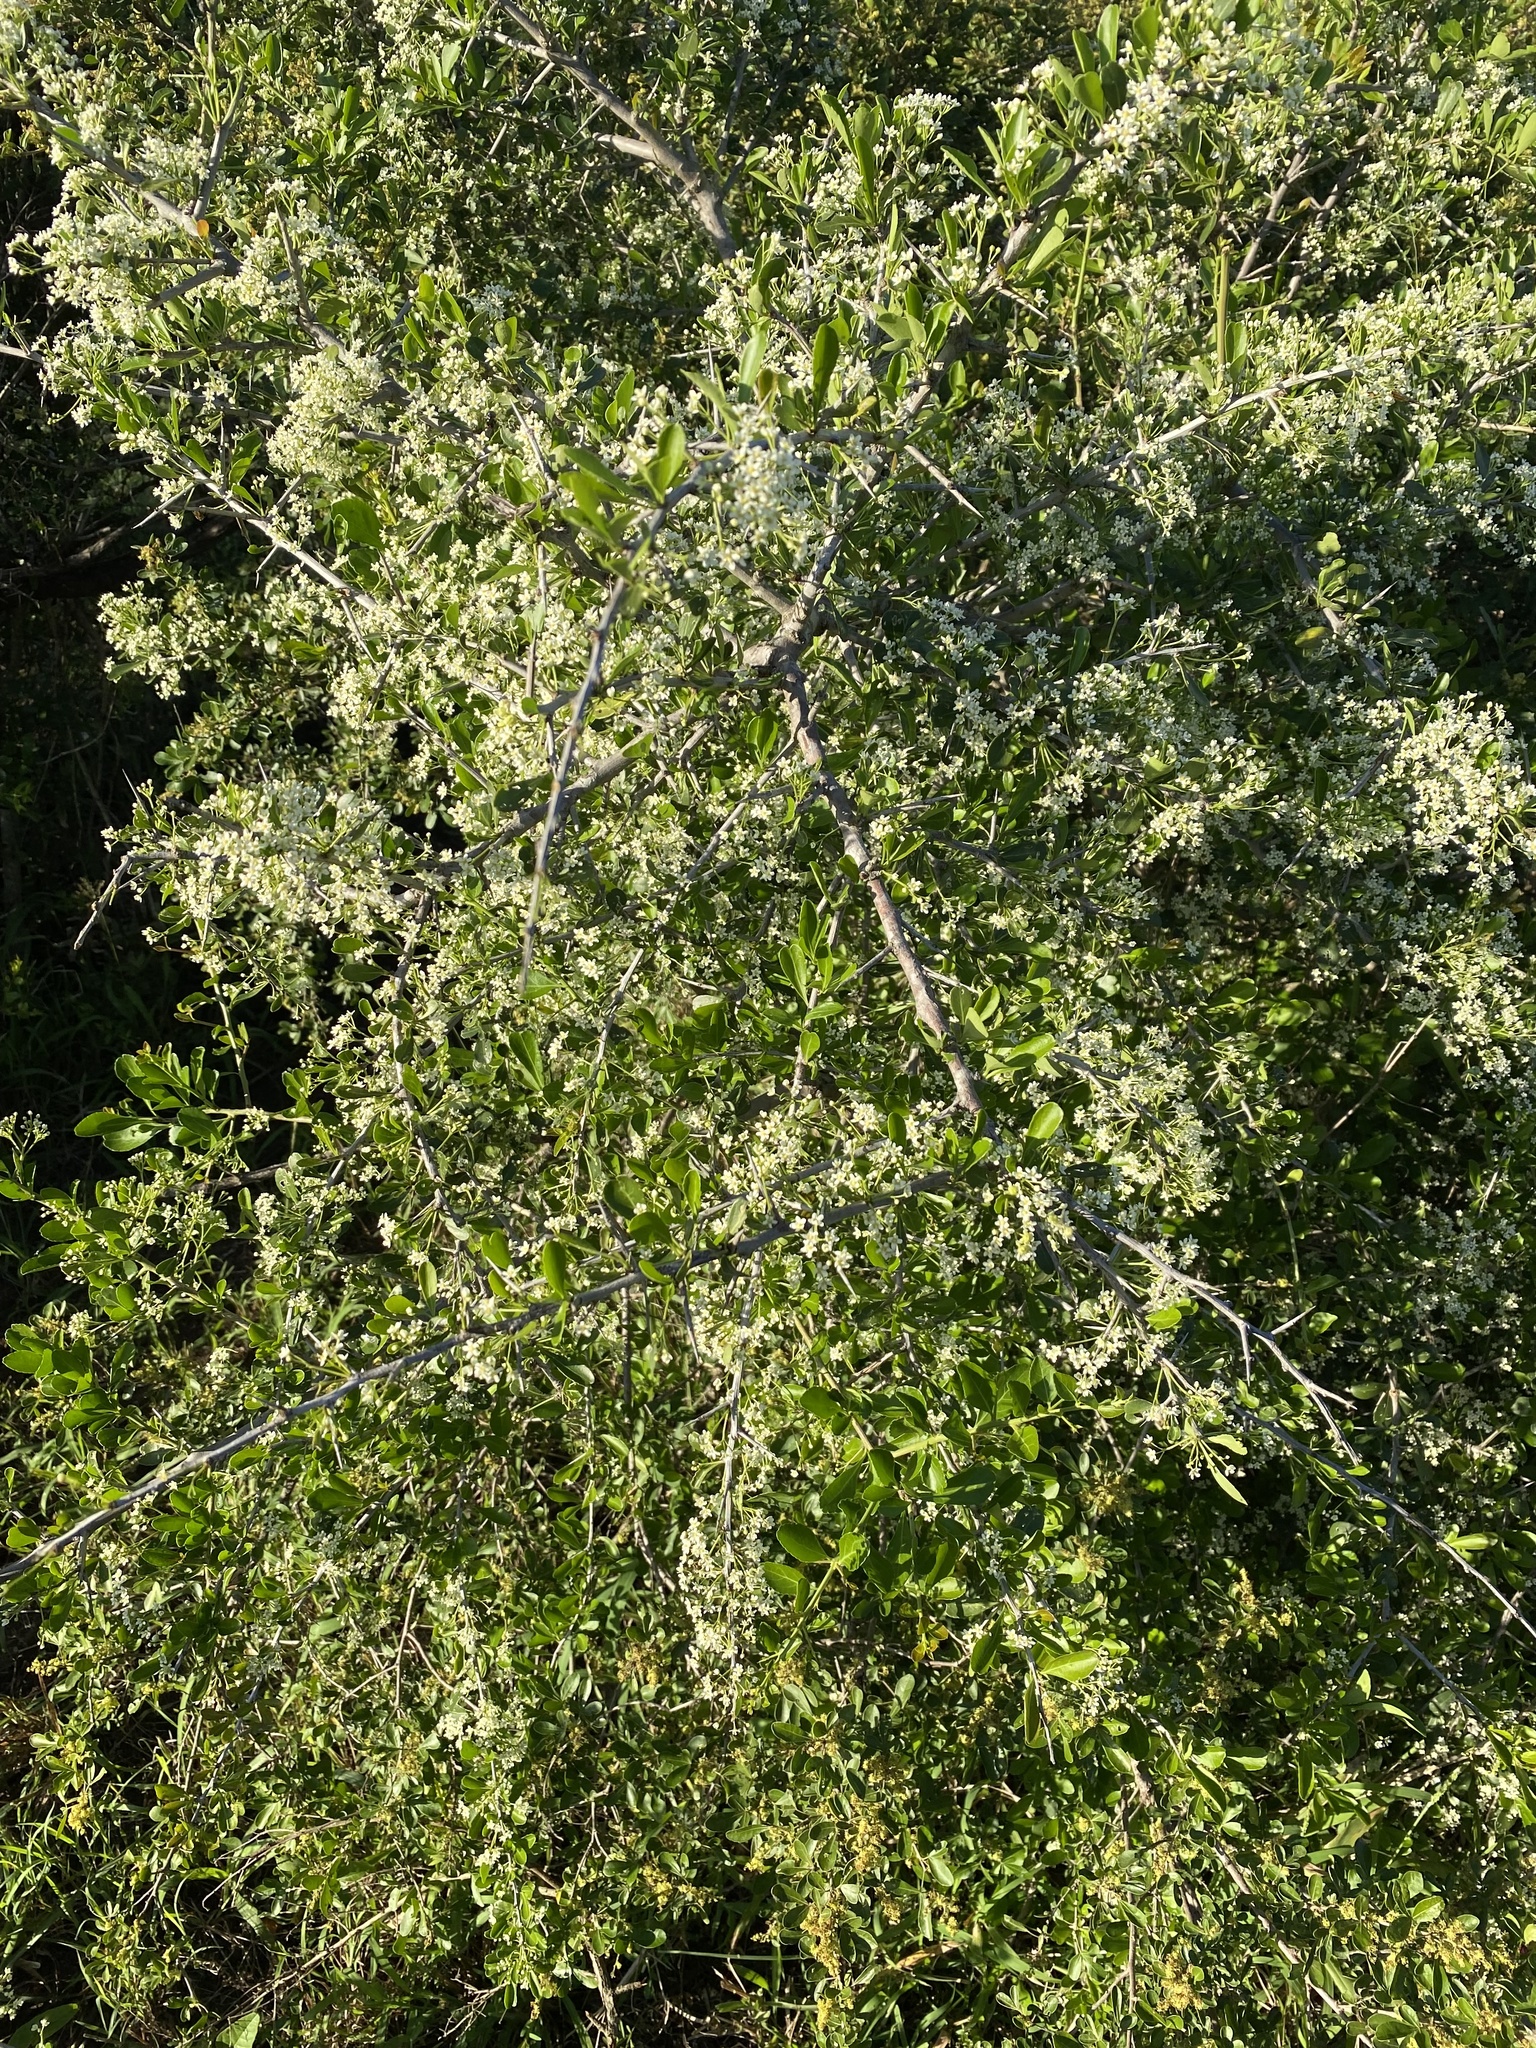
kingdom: Plantae
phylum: Tracheophyta
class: Magnoliopsida
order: Celastrales
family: Celastraceae
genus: Gymnosporia
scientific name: Gymnosporia senegalensis
